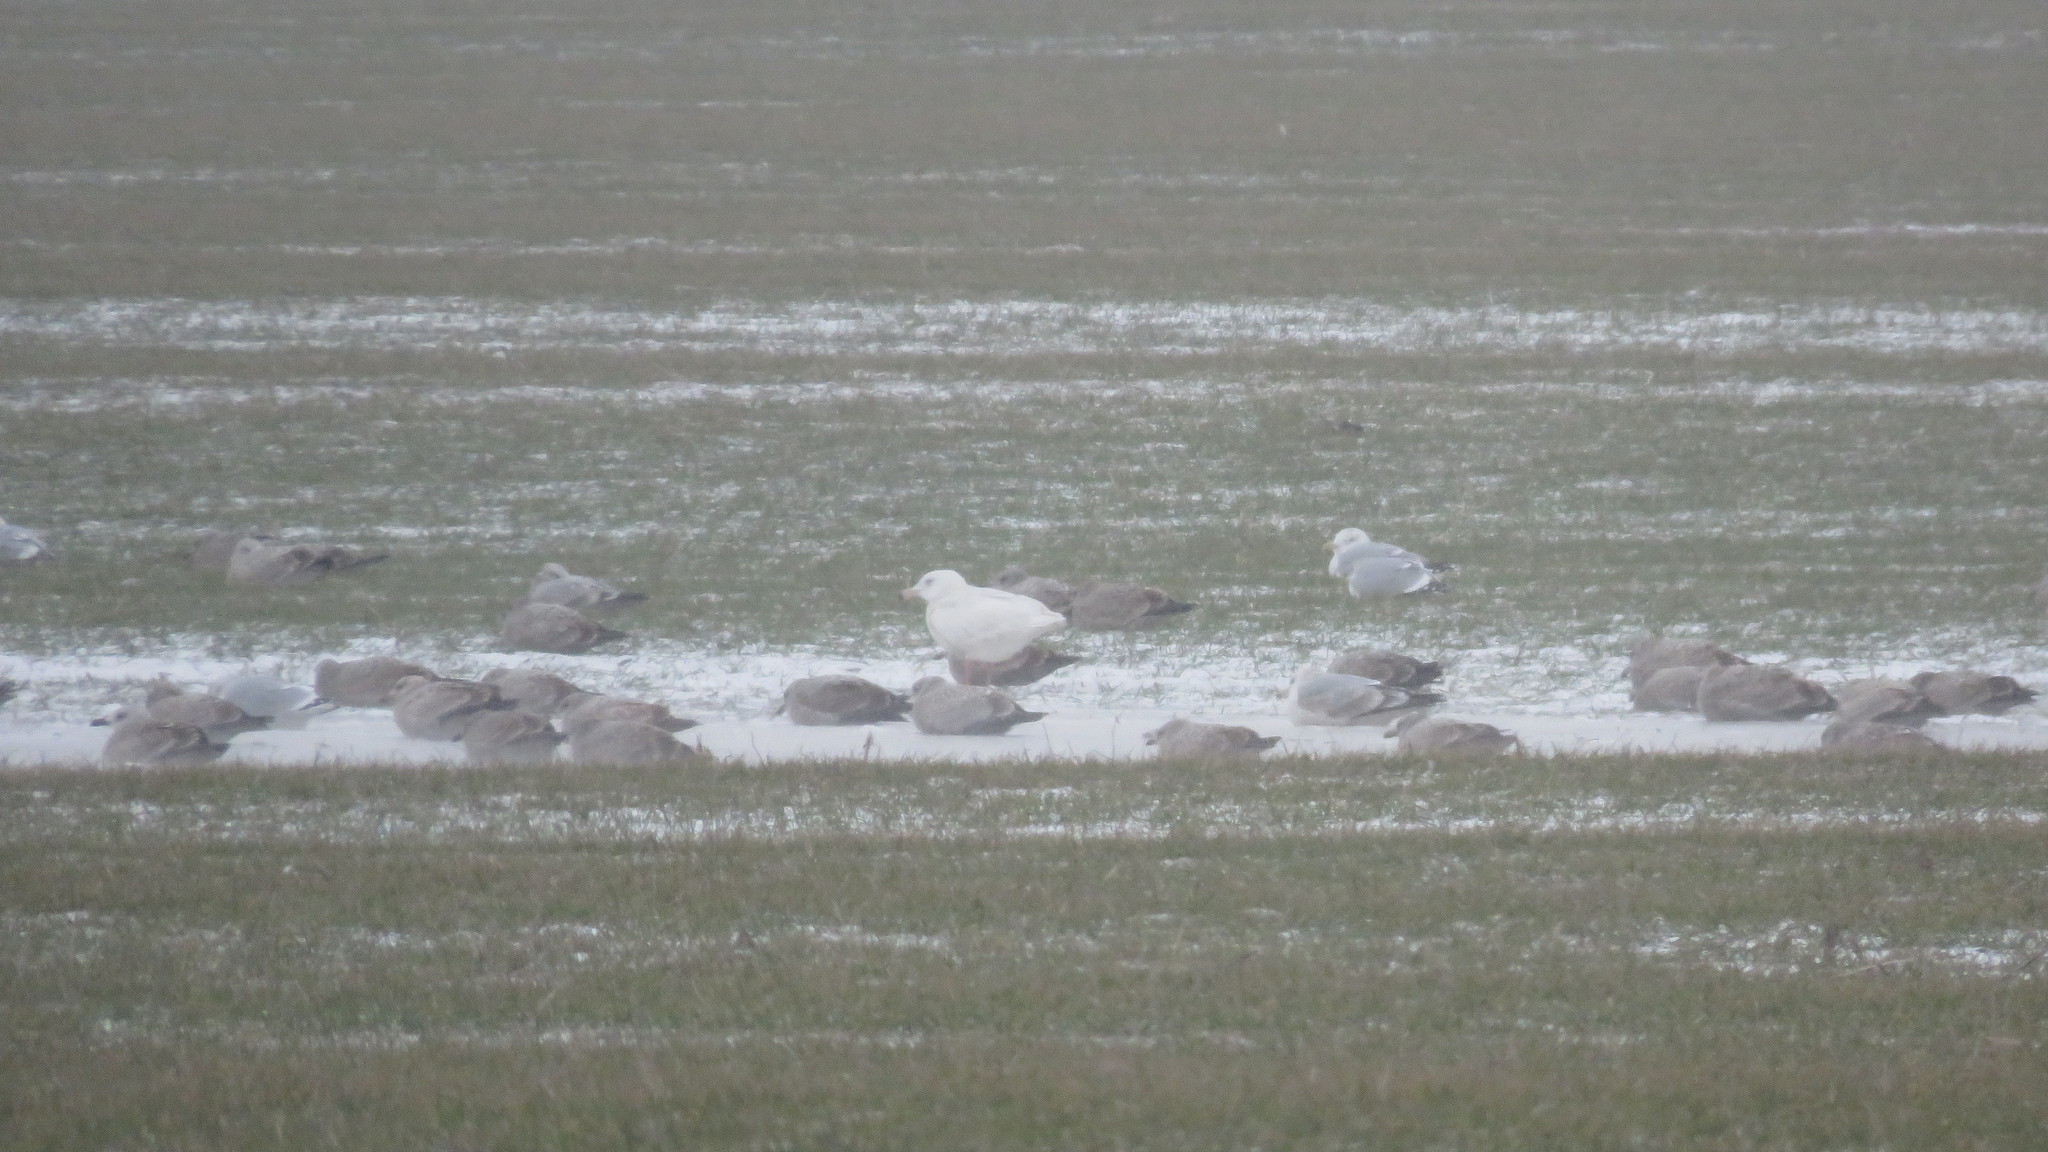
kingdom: Animalia
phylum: Chordata
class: Aves
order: Charadriiformes
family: Laridae
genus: Larus
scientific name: Larus hyperboreus
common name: Glaucous gull
